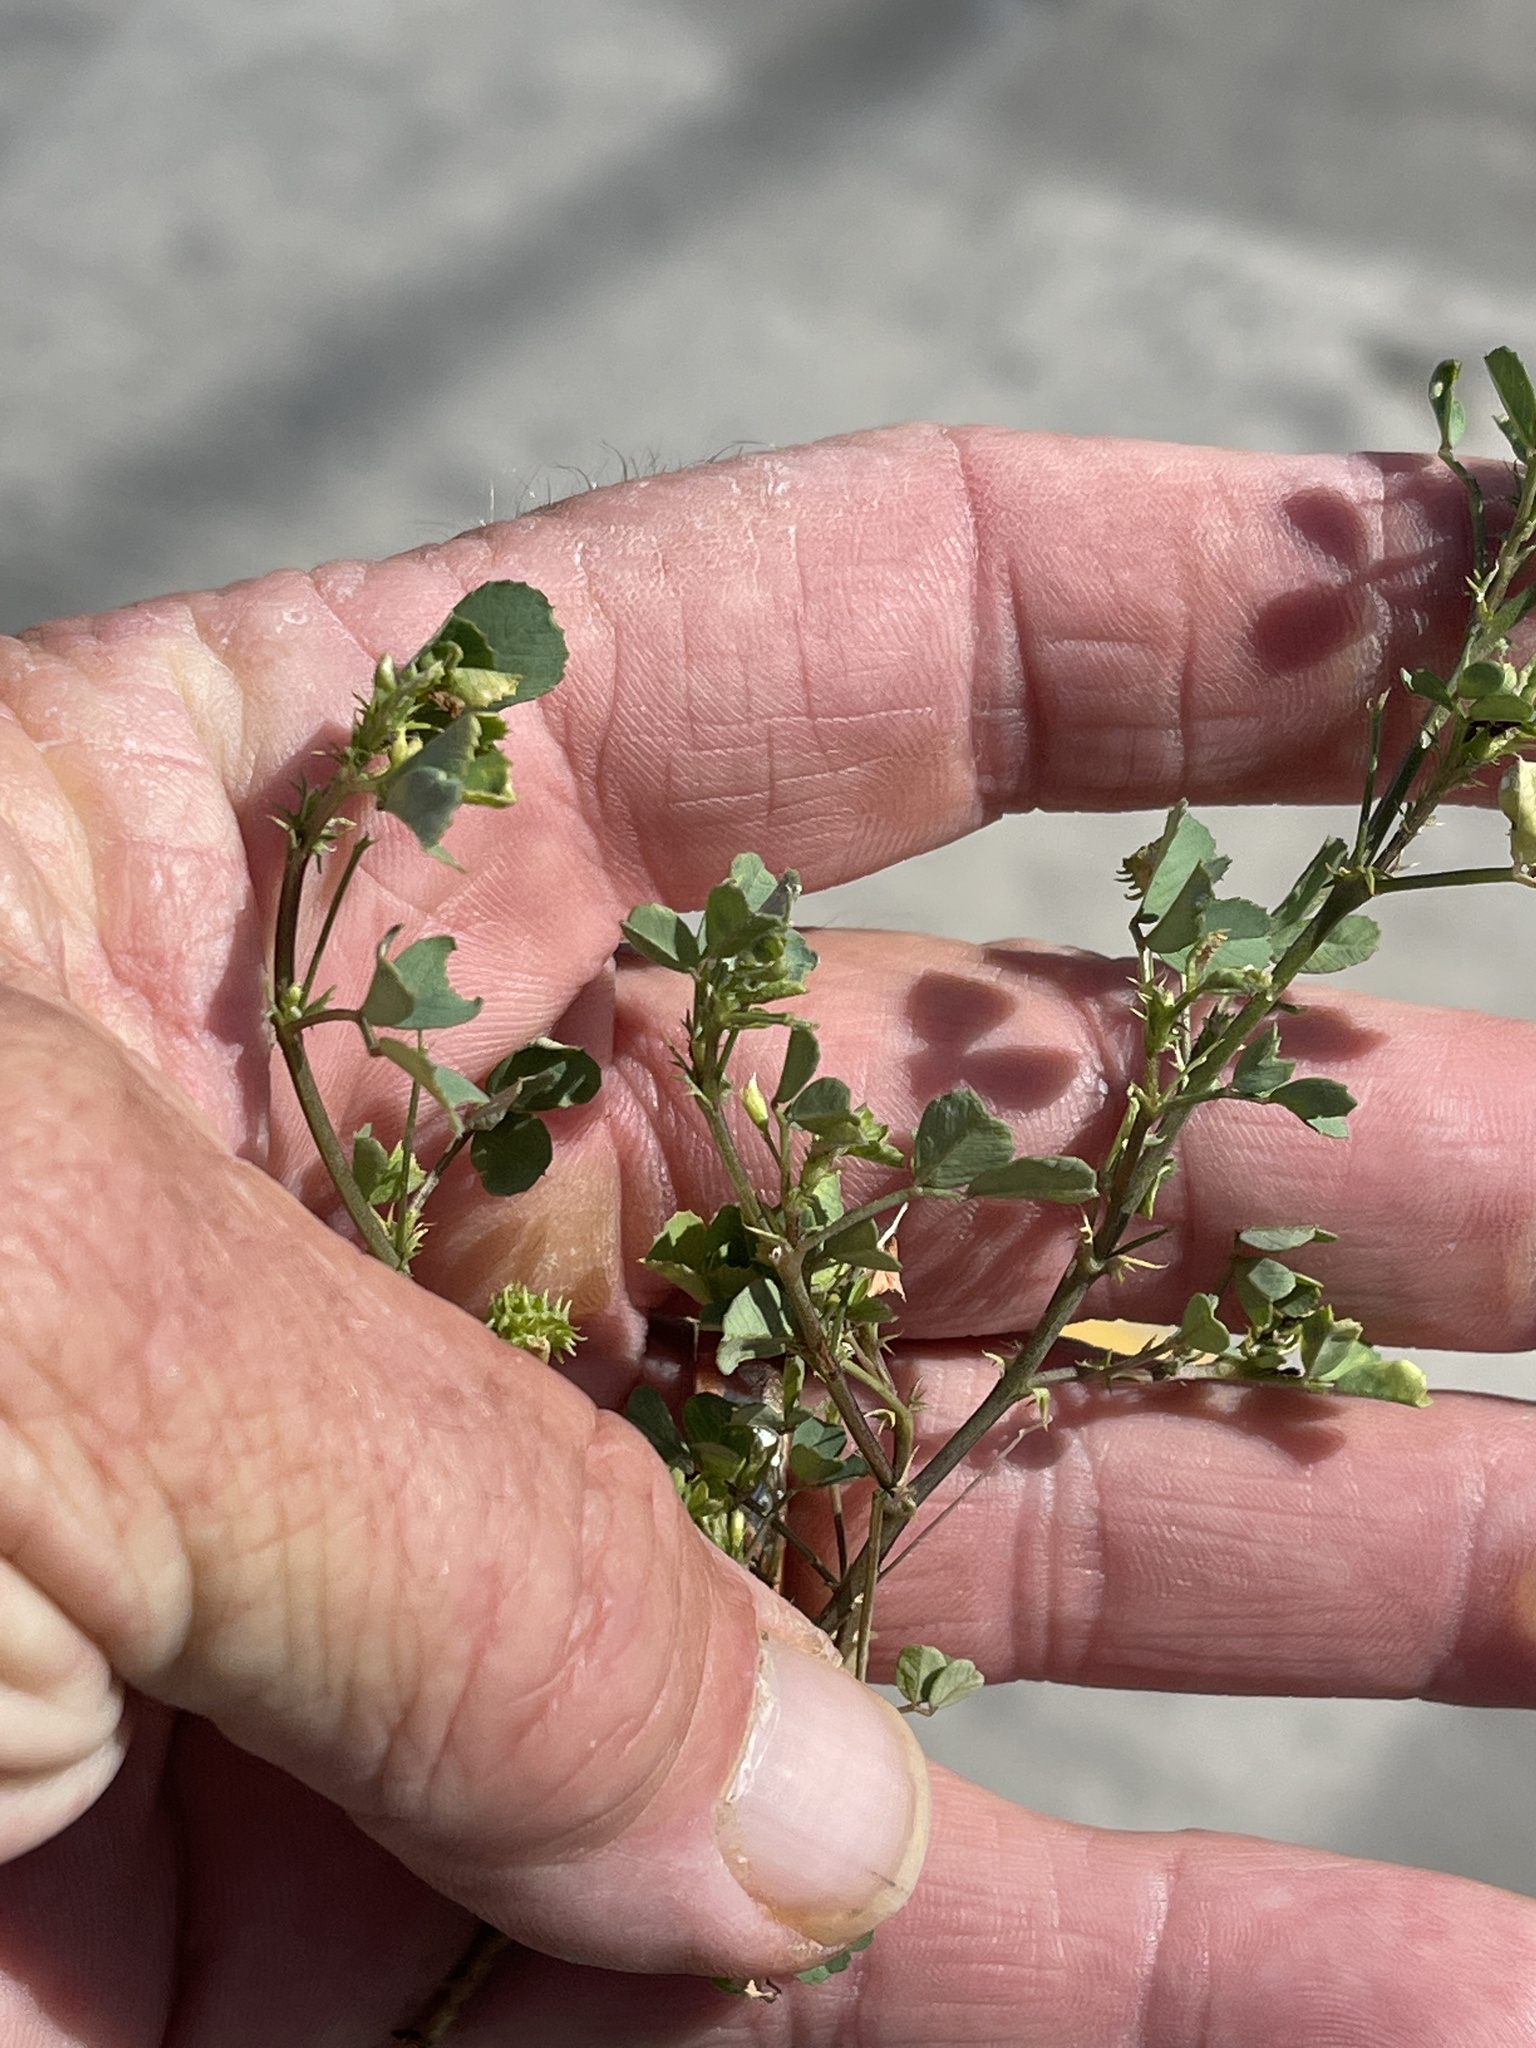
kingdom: Plantae
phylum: Tracheophyta
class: Magnoliopsida
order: Fabales
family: Fabaceae
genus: Medicago
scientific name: Medicago polymorpha
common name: Burclover
